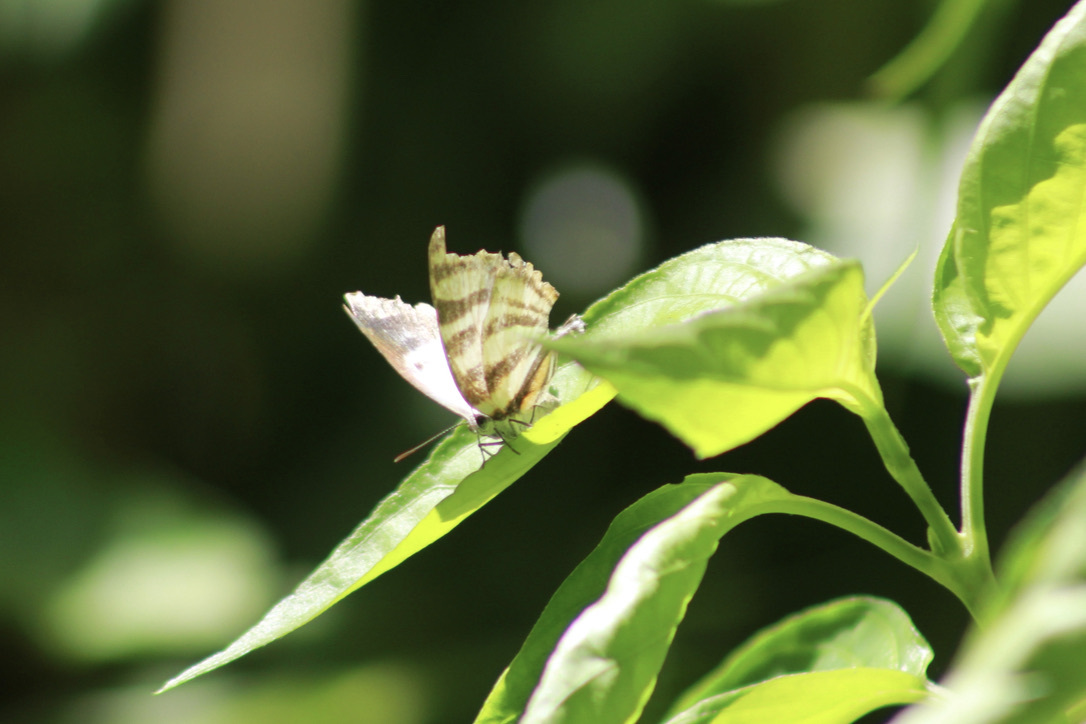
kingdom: Animalia
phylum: Arthropoda
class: Insecta
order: Lepidoptera
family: Lycaenidae
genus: Thecla
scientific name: Thecla aetolus
